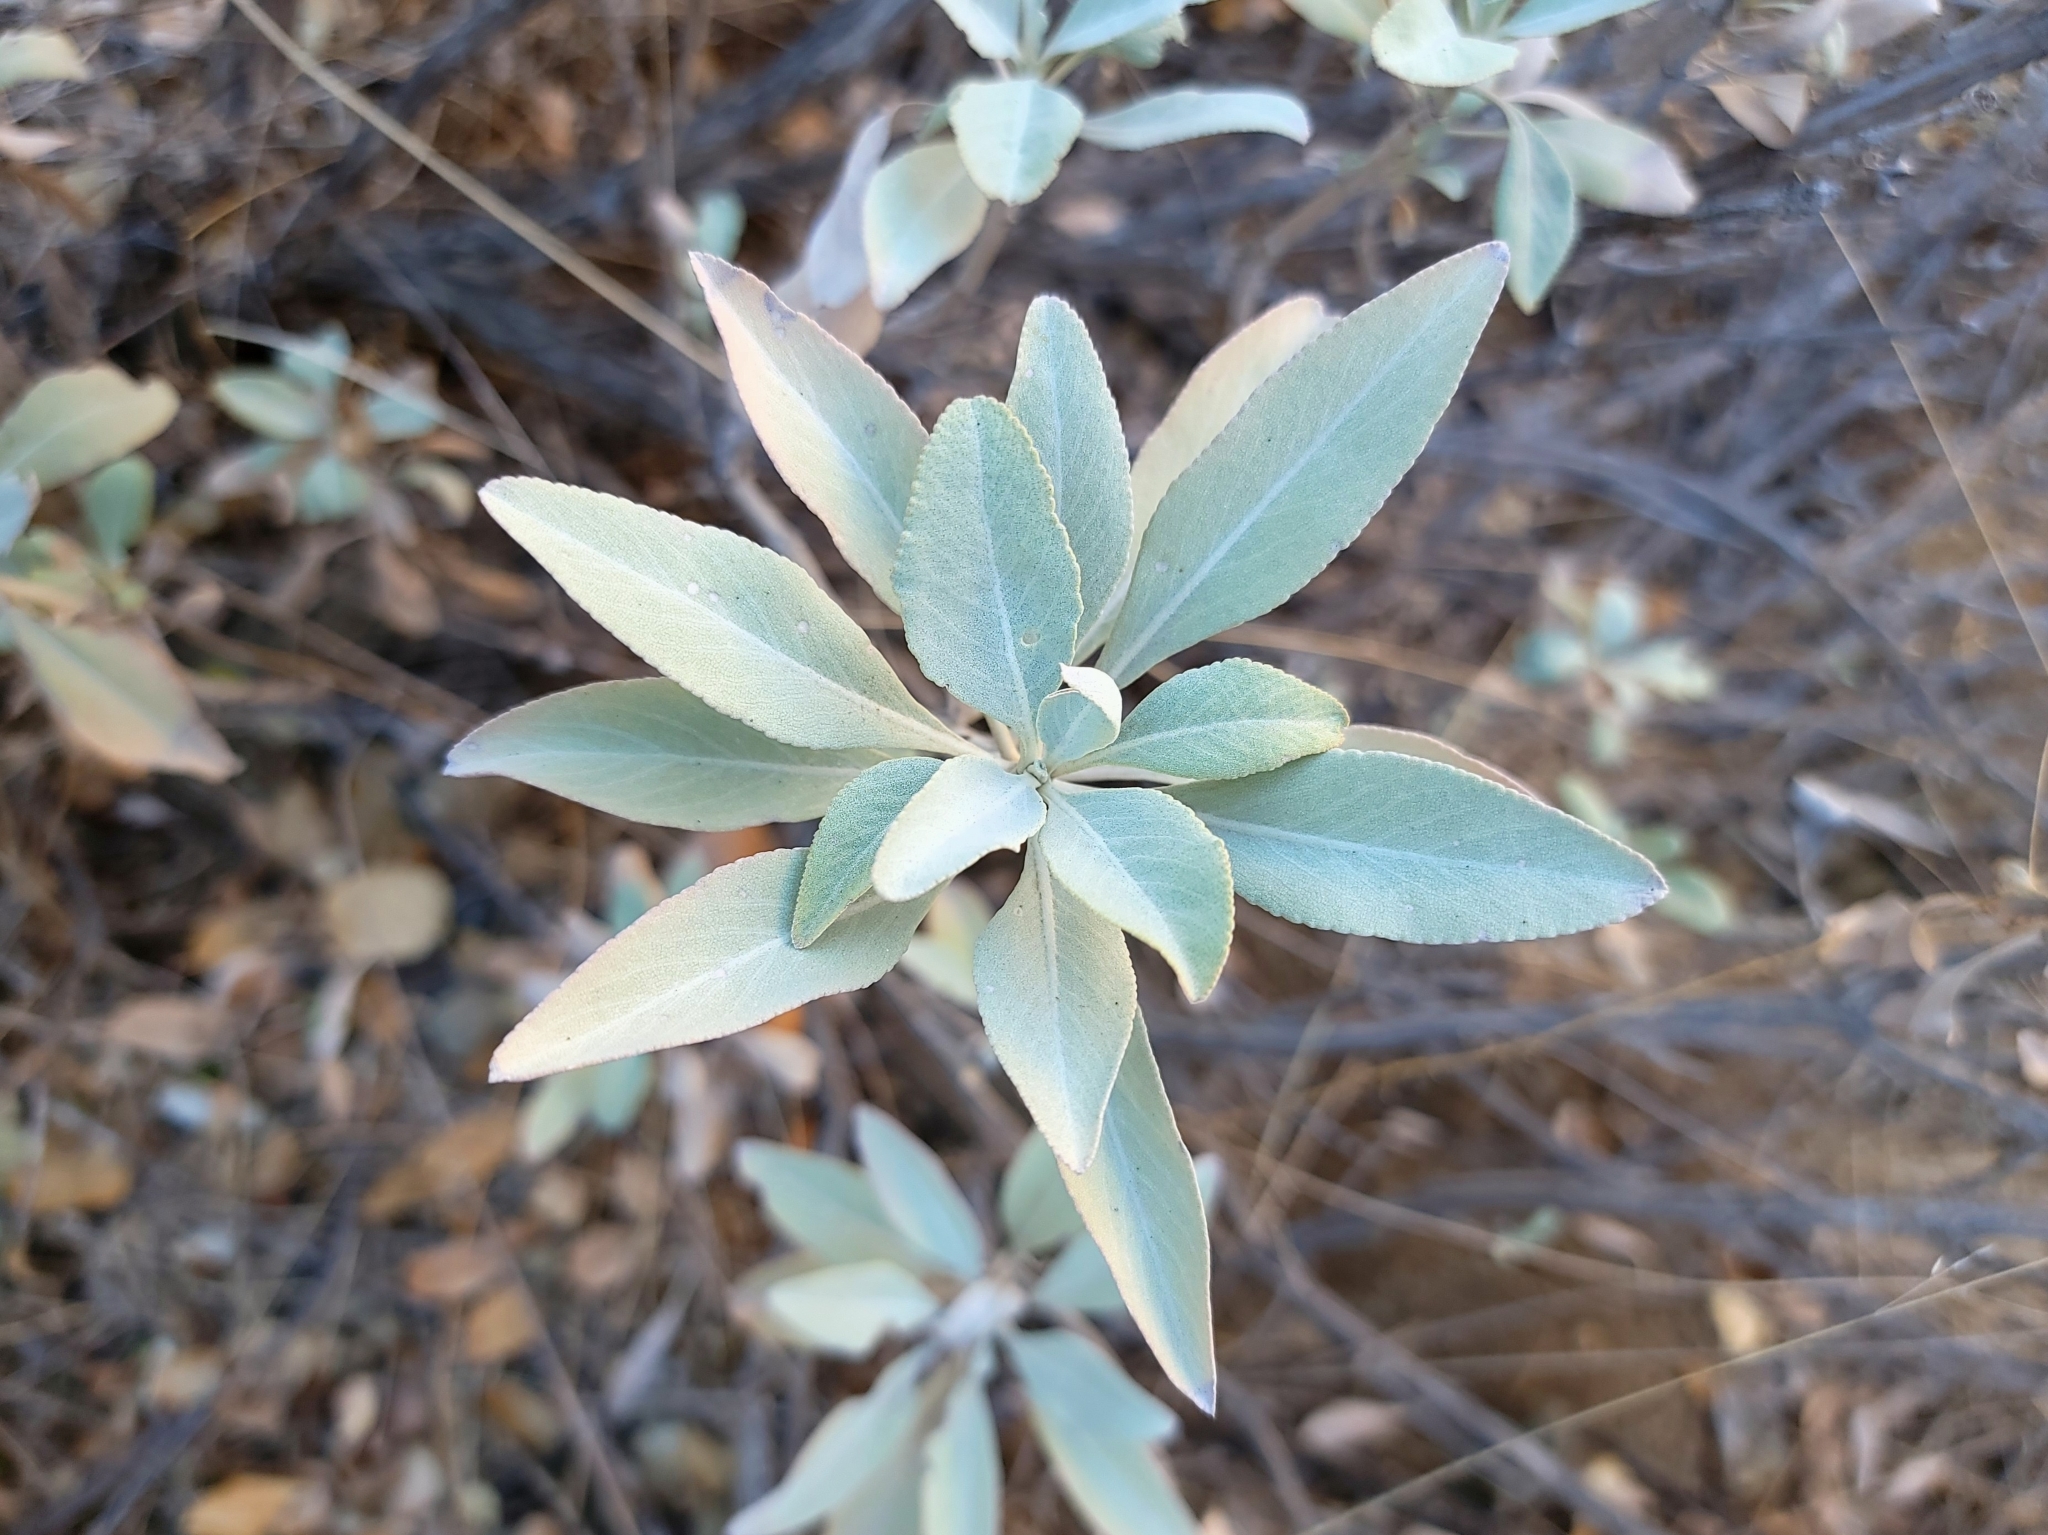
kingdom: Plantae
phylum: Tracheophyta
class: Magnoliopsida
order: Lamiales
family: Lamiaceae
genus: Salvia
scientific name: Salvia apiana
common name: White sage
